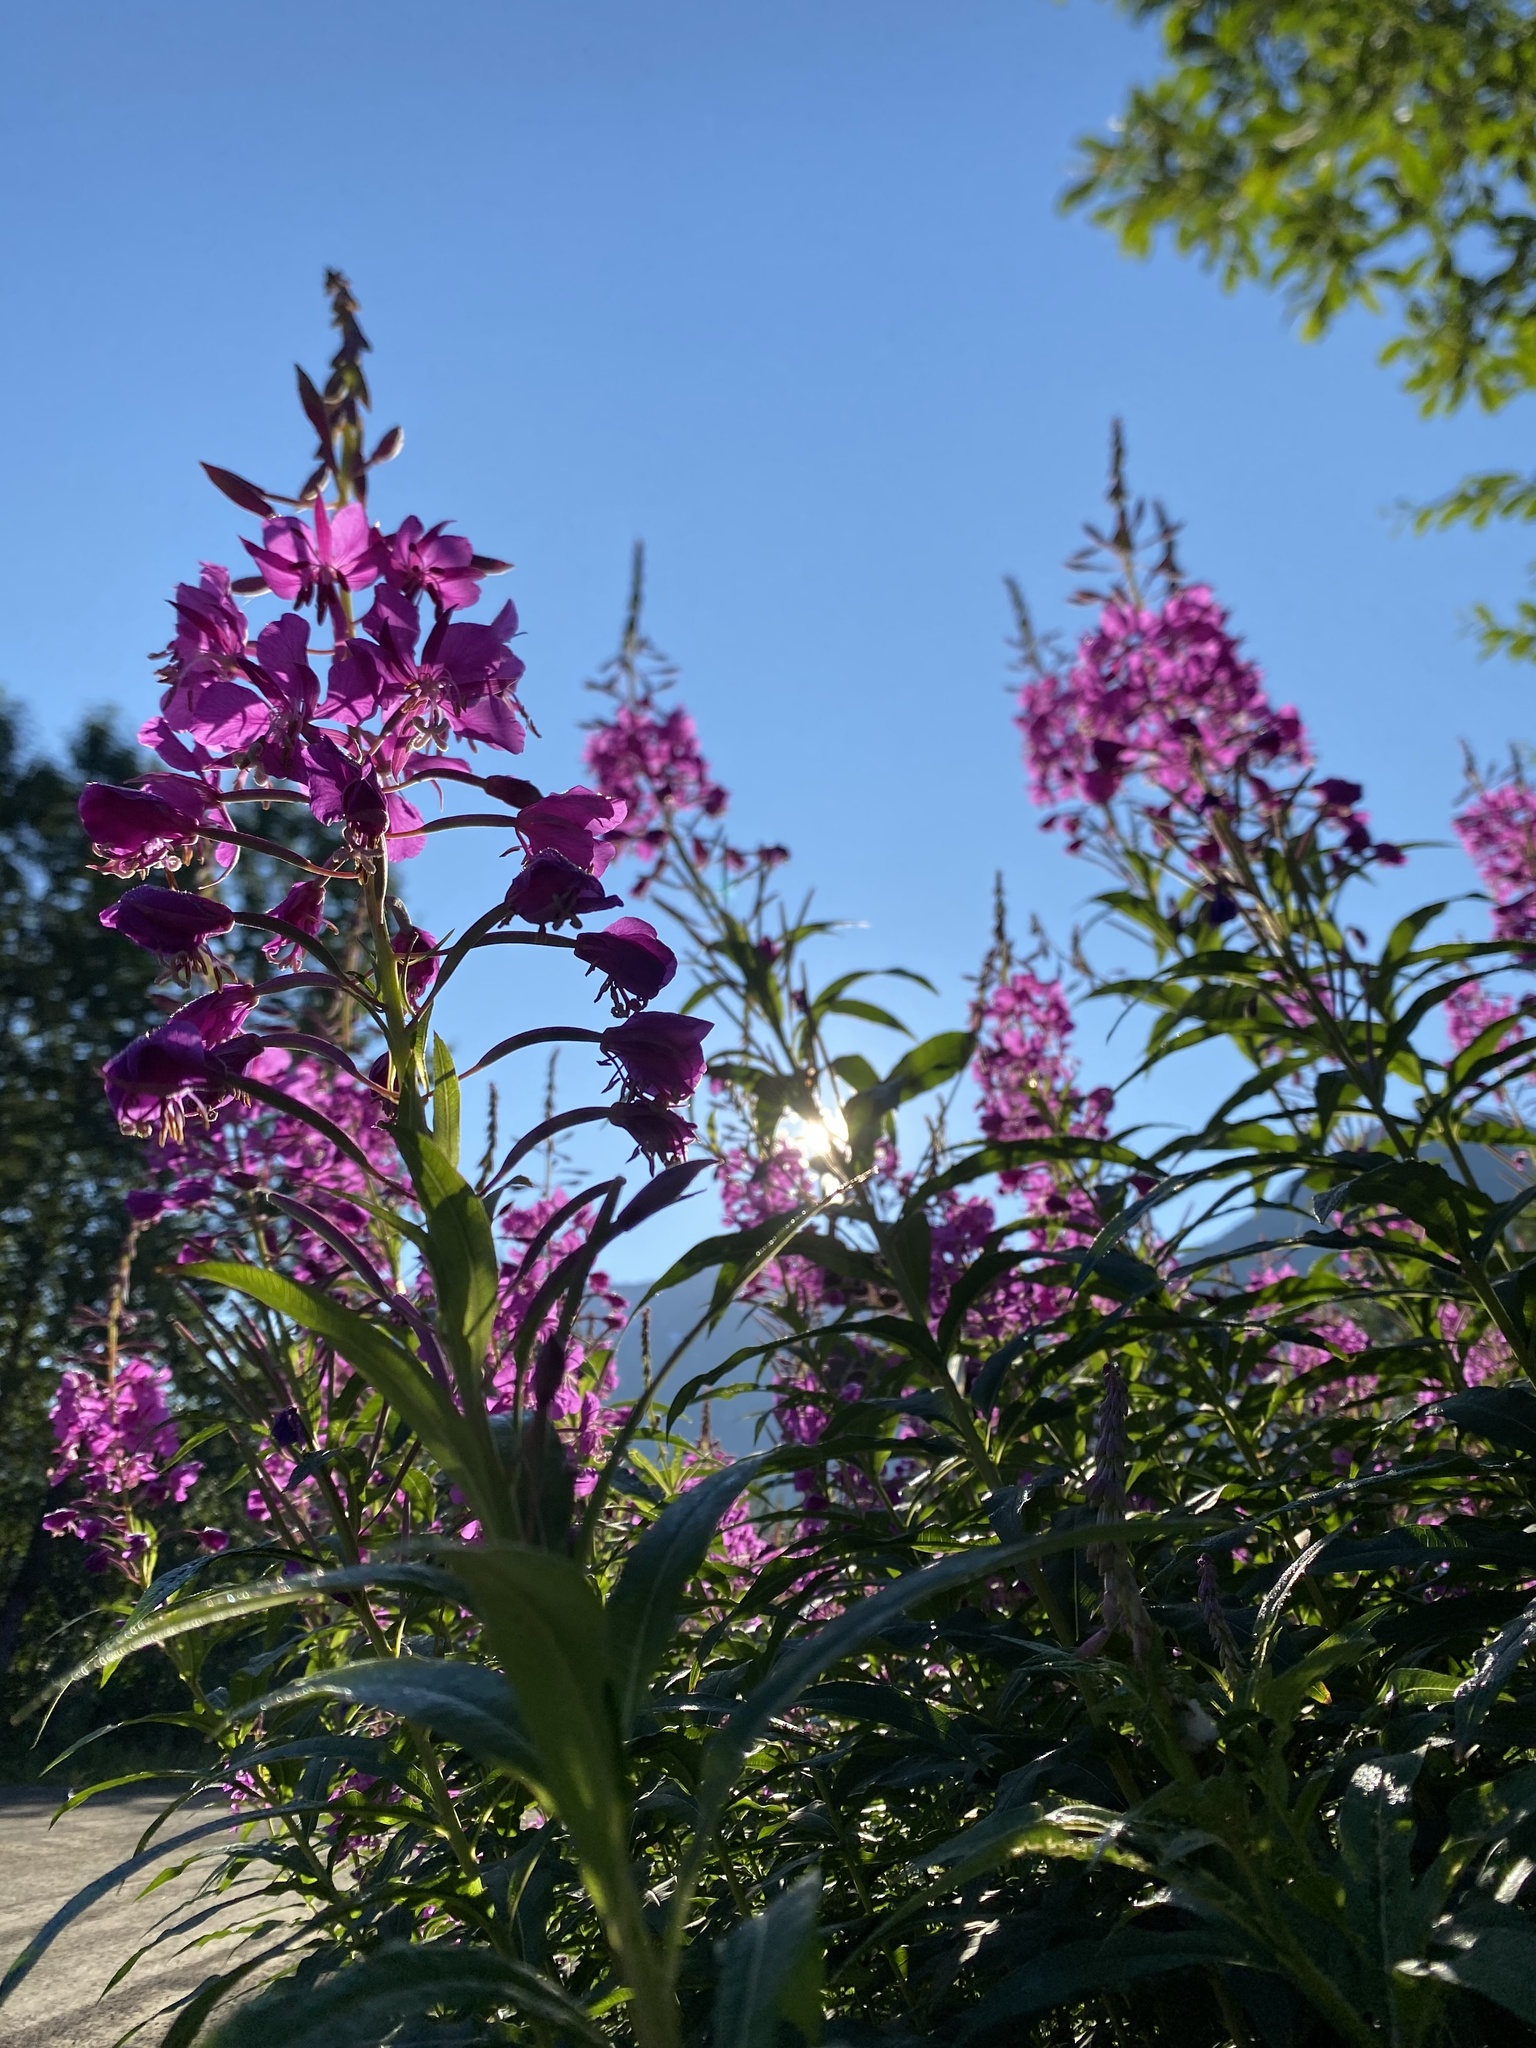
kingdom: Plantae
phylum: Tracheophyta
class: Magnoliopsida
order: Myrtales
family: Onagraceae
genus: Chamaenerion
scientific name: Chamaenerion angustifolium
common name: Fireweed
